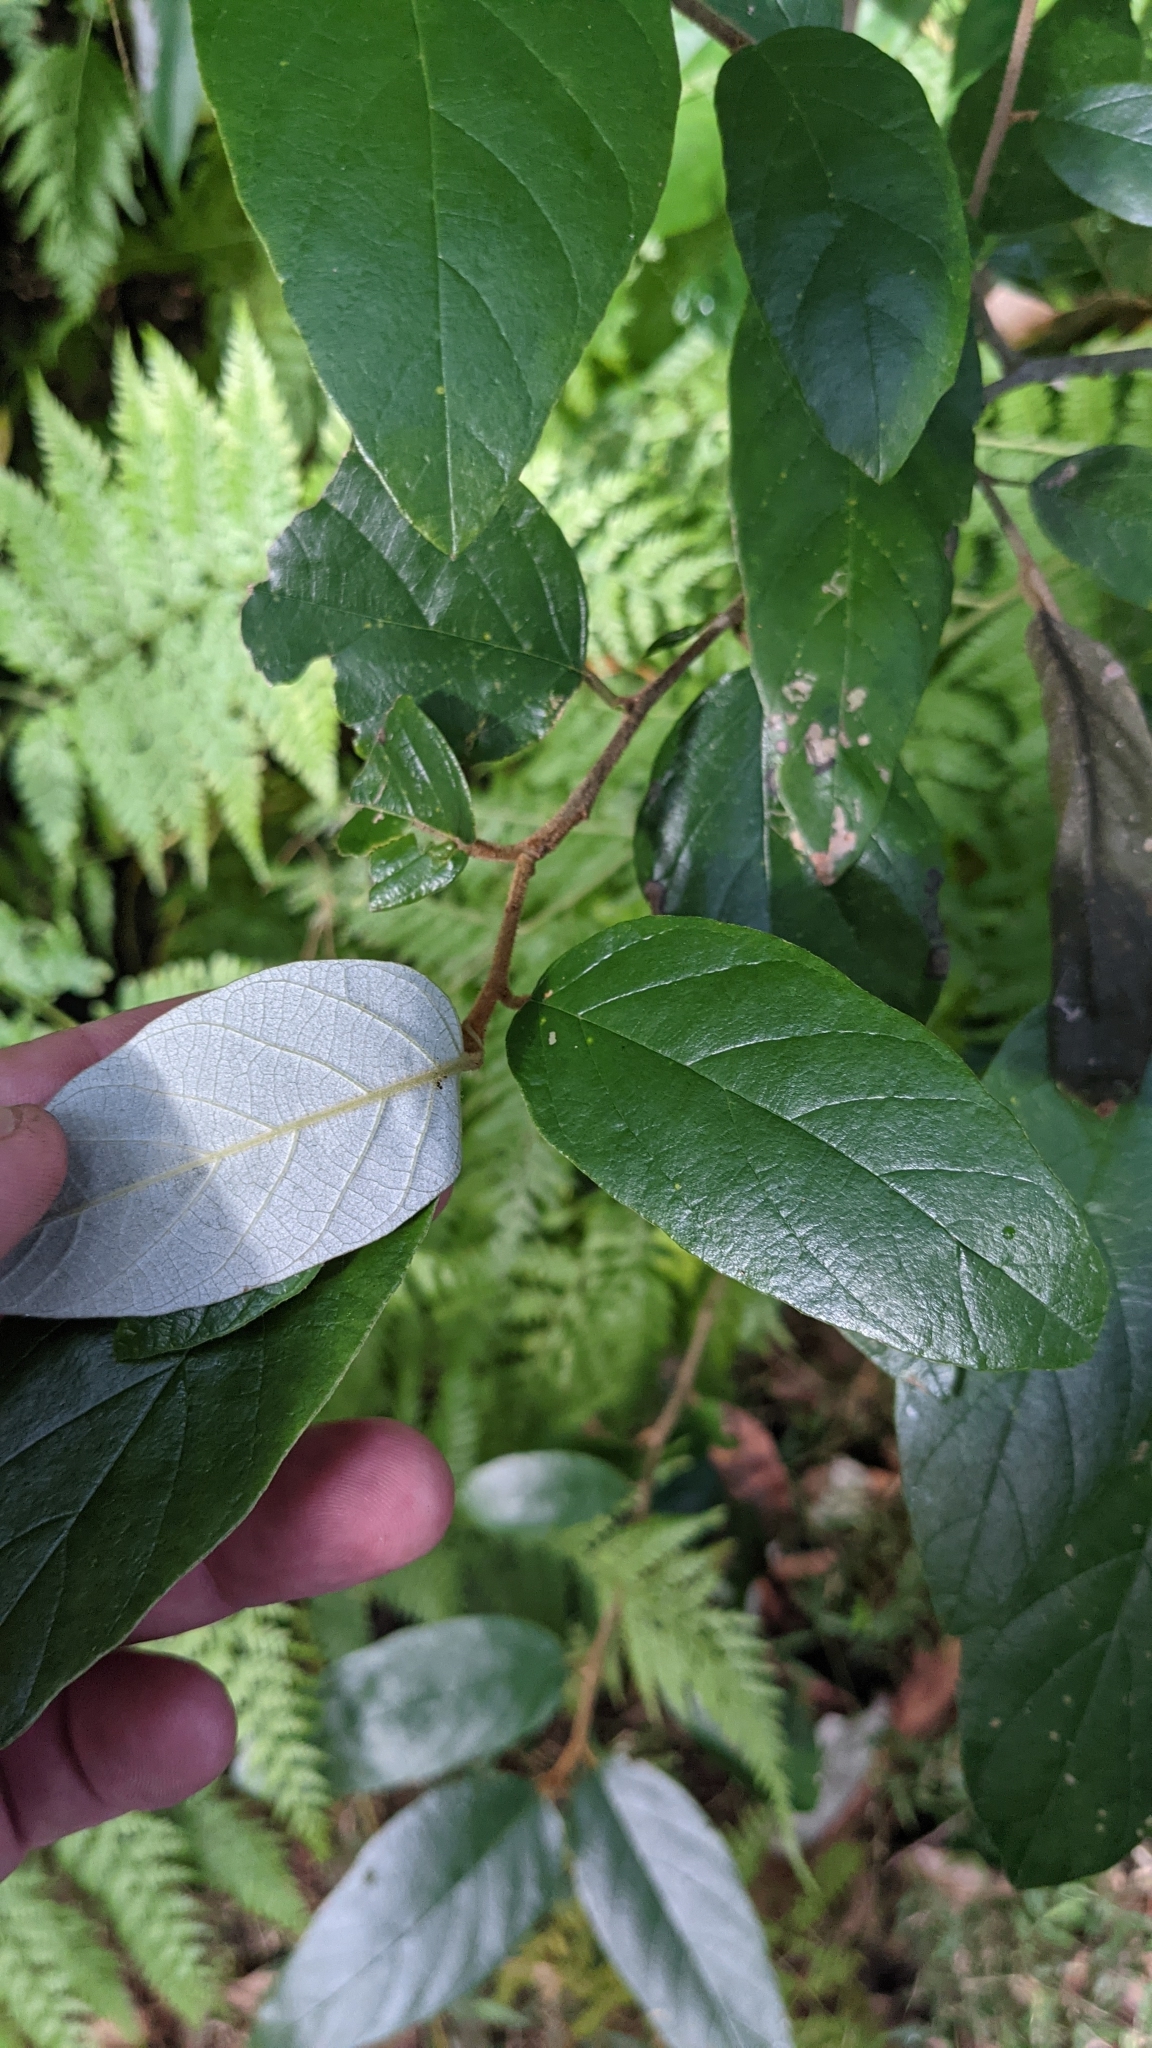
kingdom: Plantae
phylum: Tracheophyta
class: Magnoliopsida
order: Rosales
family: Rhamnaceae
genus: Alphitonia
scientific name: Alphitonia excelsa
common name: Red ash
